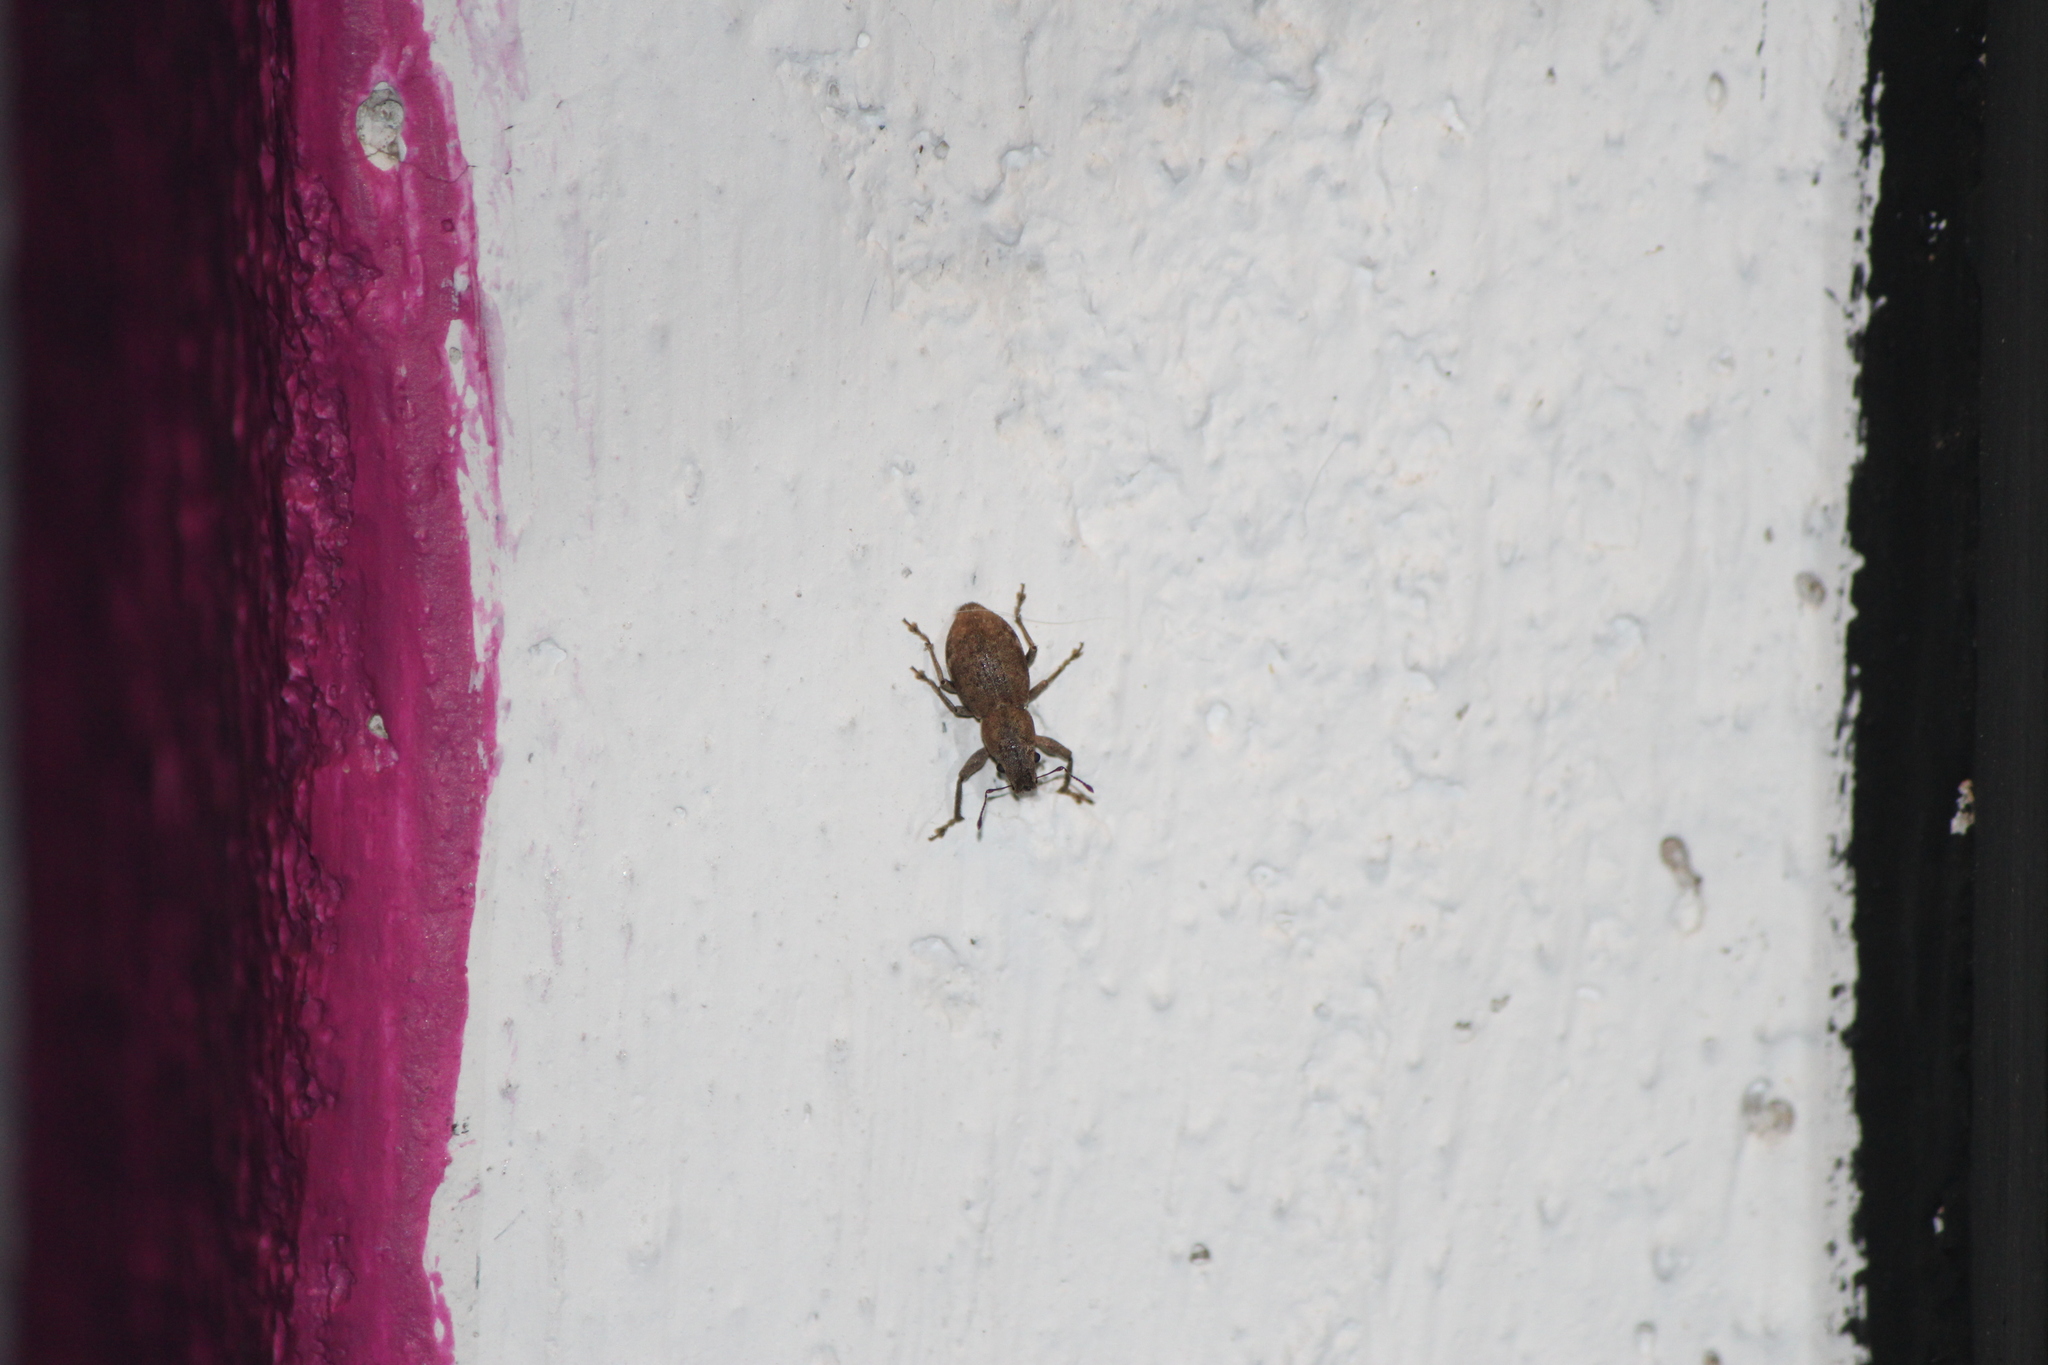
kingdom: Animalia
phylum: Arthropoda
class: Insecta
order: Coleoptera
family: Curculionidae
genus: Naupactus
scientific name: Naupactus cervinus
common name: Fuller rose beetle
